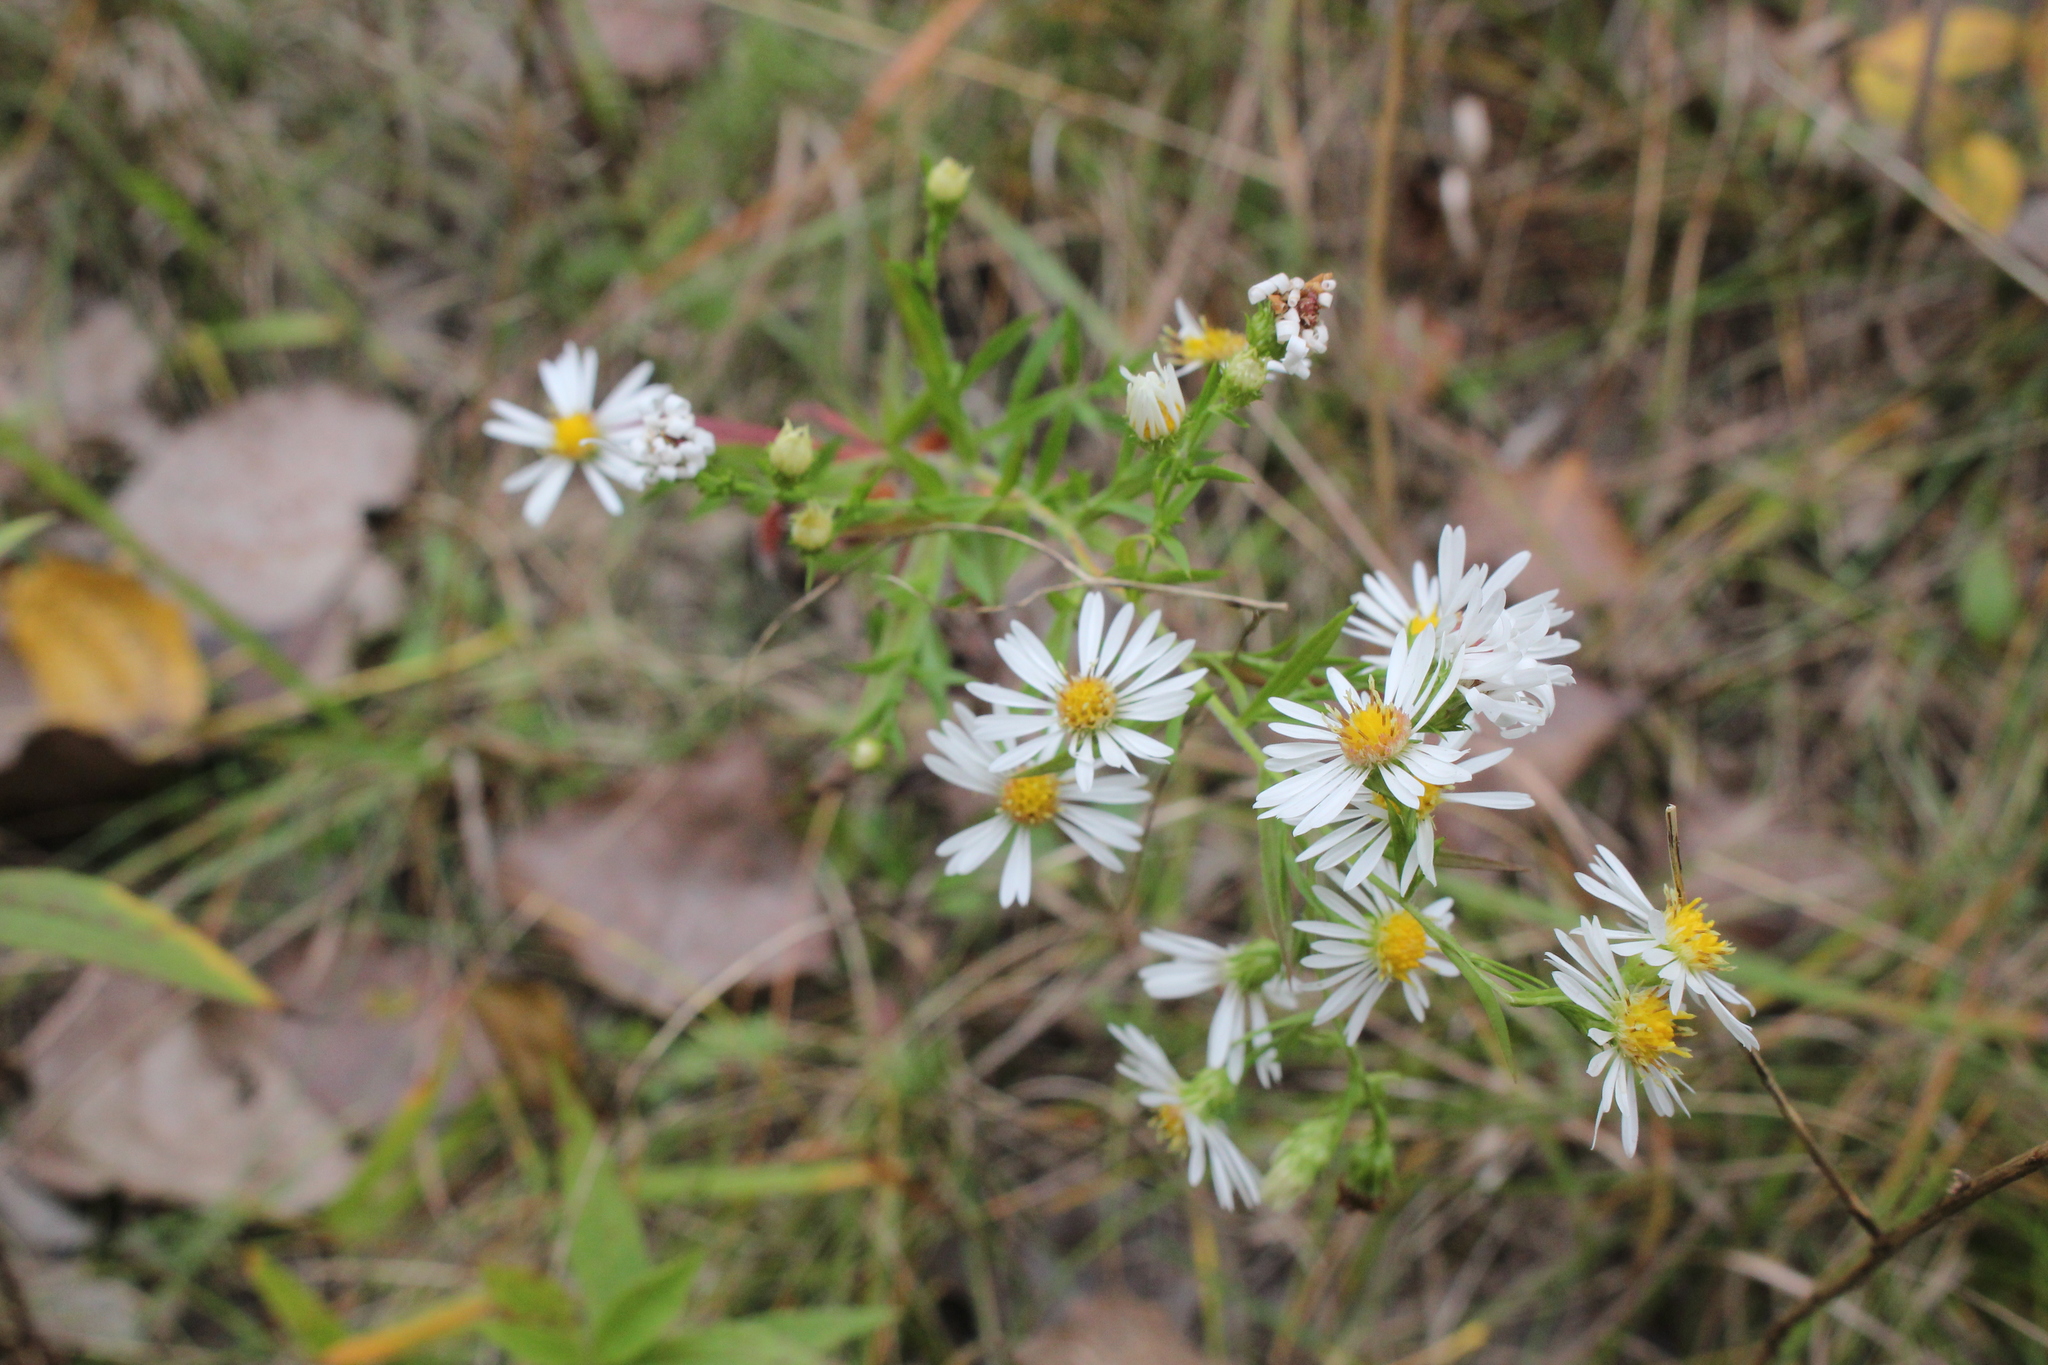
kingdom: Plantae
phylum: Tracheophyta
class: Magnoliopsida
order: Asterales
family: Asteraceae
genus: Symphyotrichum
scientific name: Symphyotrichum pilosum
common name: Awl aster
